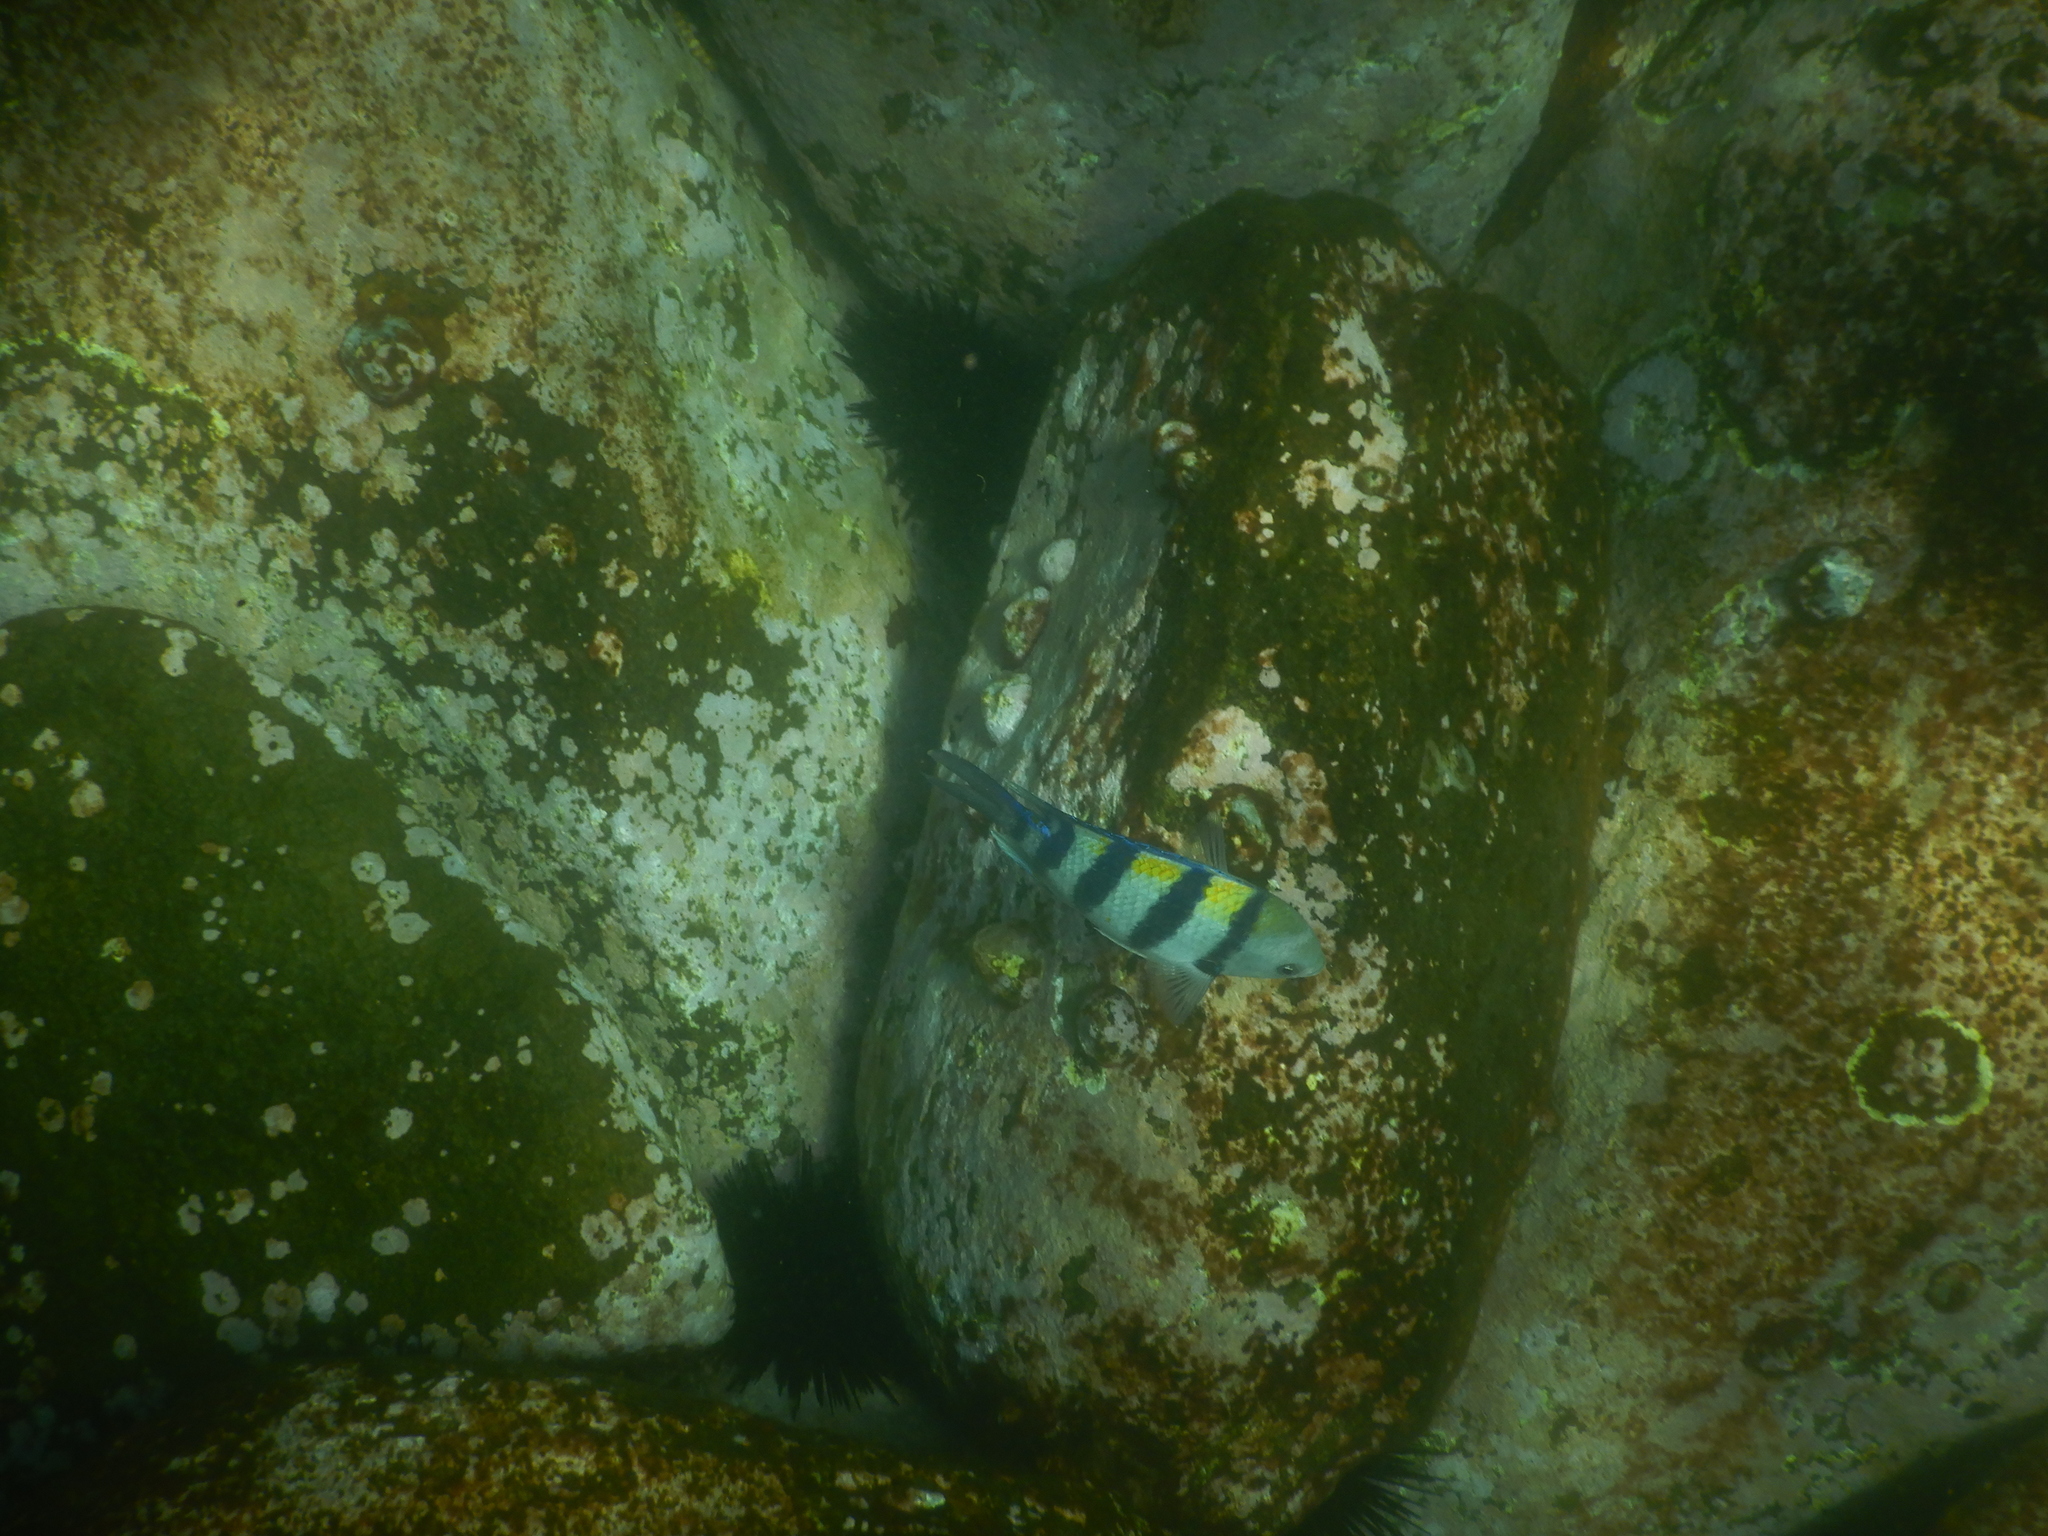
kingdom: Animalia
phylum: Chordata
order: Perciformes
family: Pomacentridae
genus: Abudefduf
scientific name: Abudefduf vaigiensis
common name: Indo-pacific sergeant
